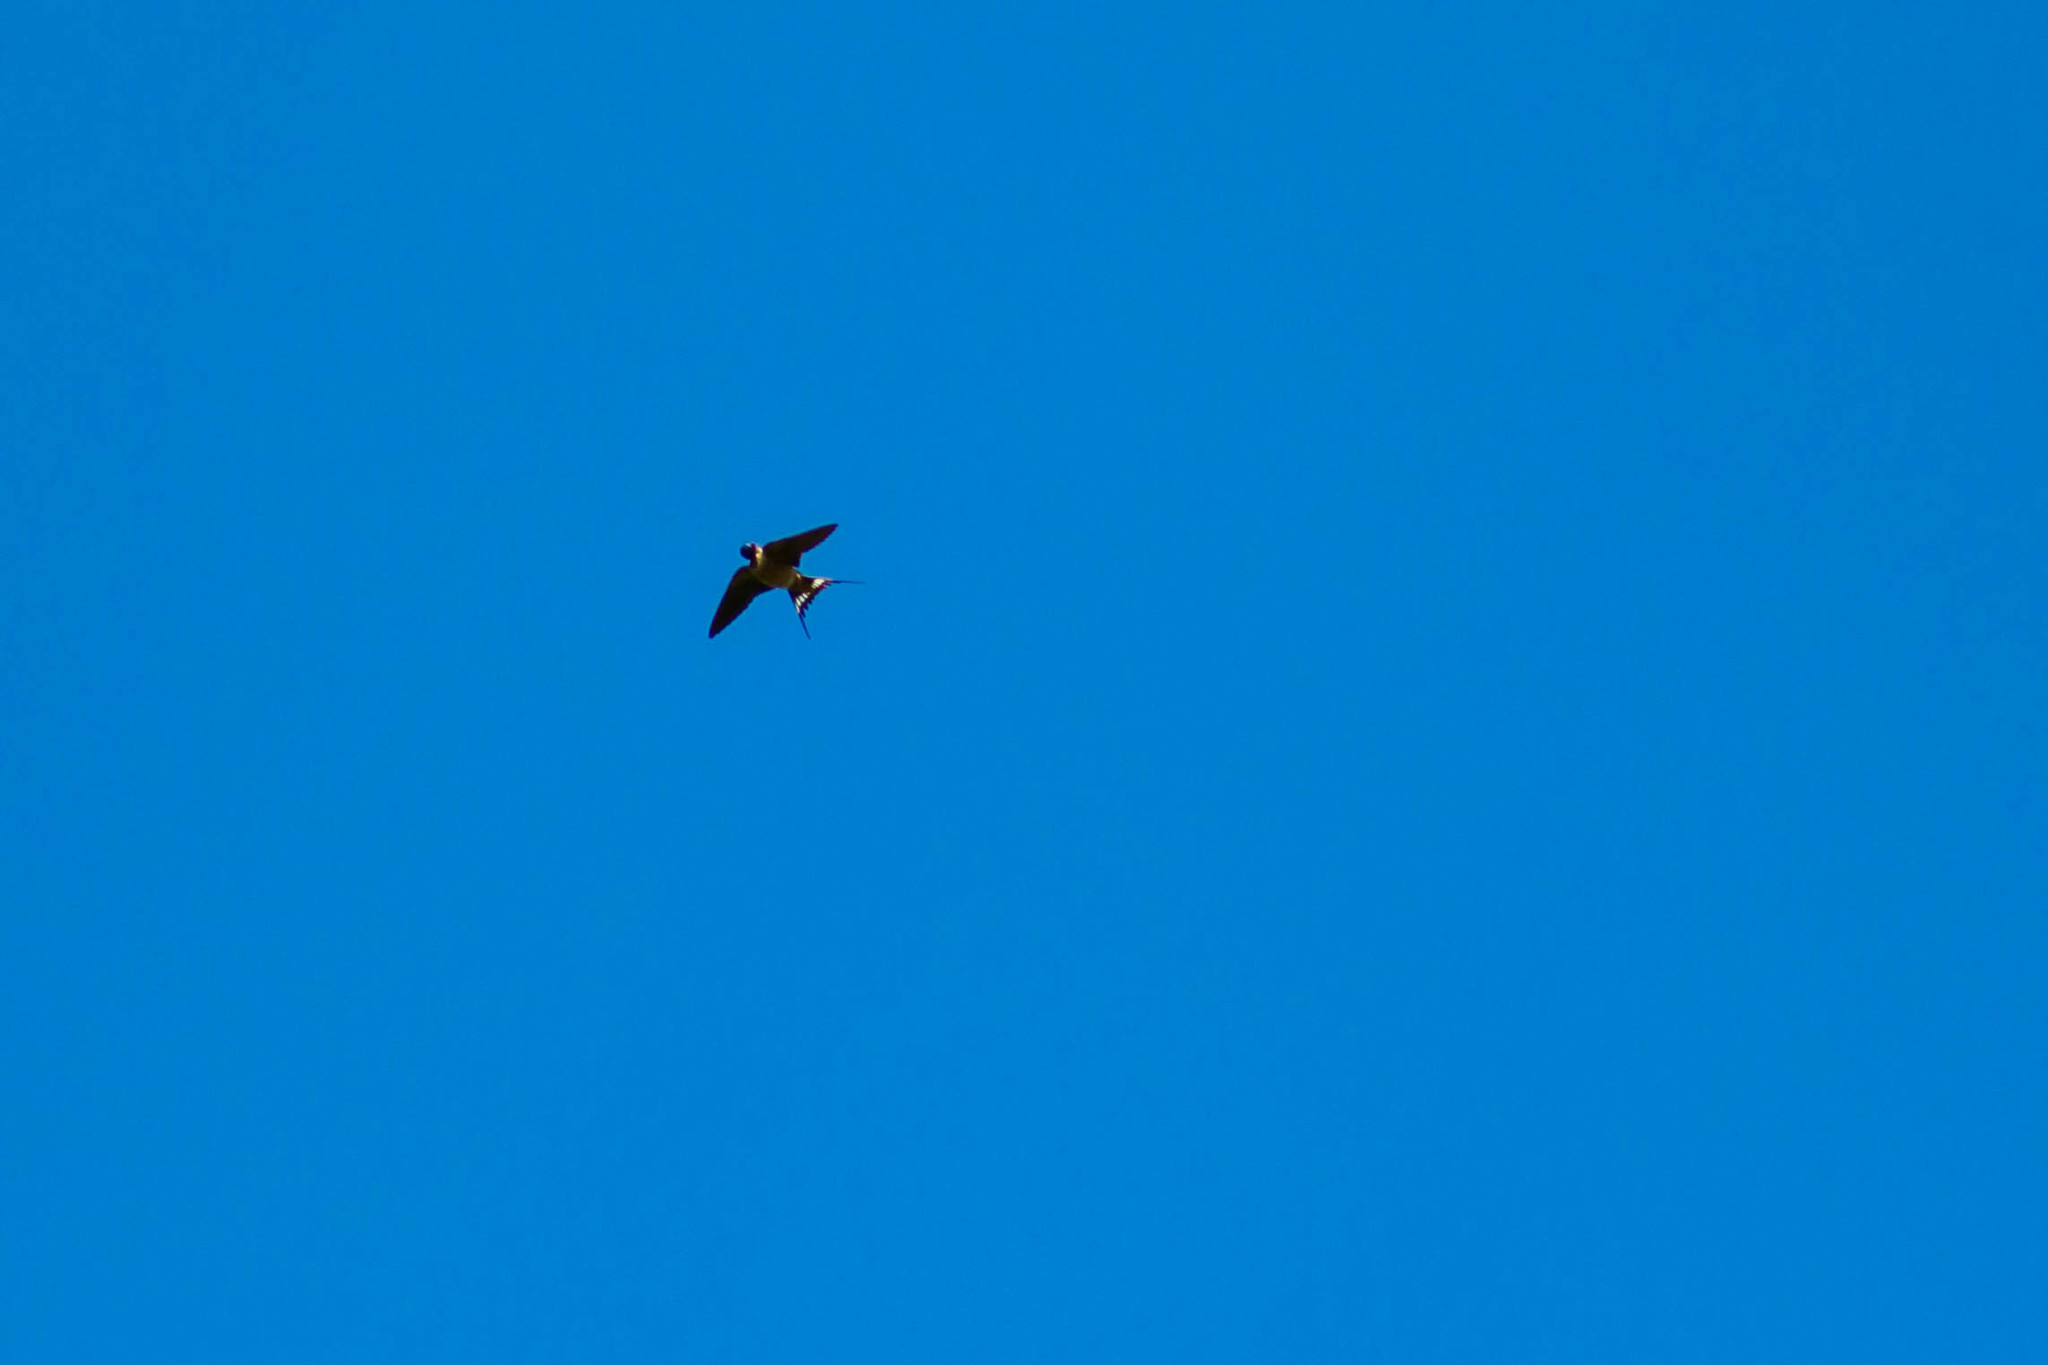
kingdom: Animalia
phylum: Chordata
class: Aves
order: Passeriformes
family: Hirundinidae
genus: Hirundo
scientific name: Hirundo rustica
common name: Barn swallow
